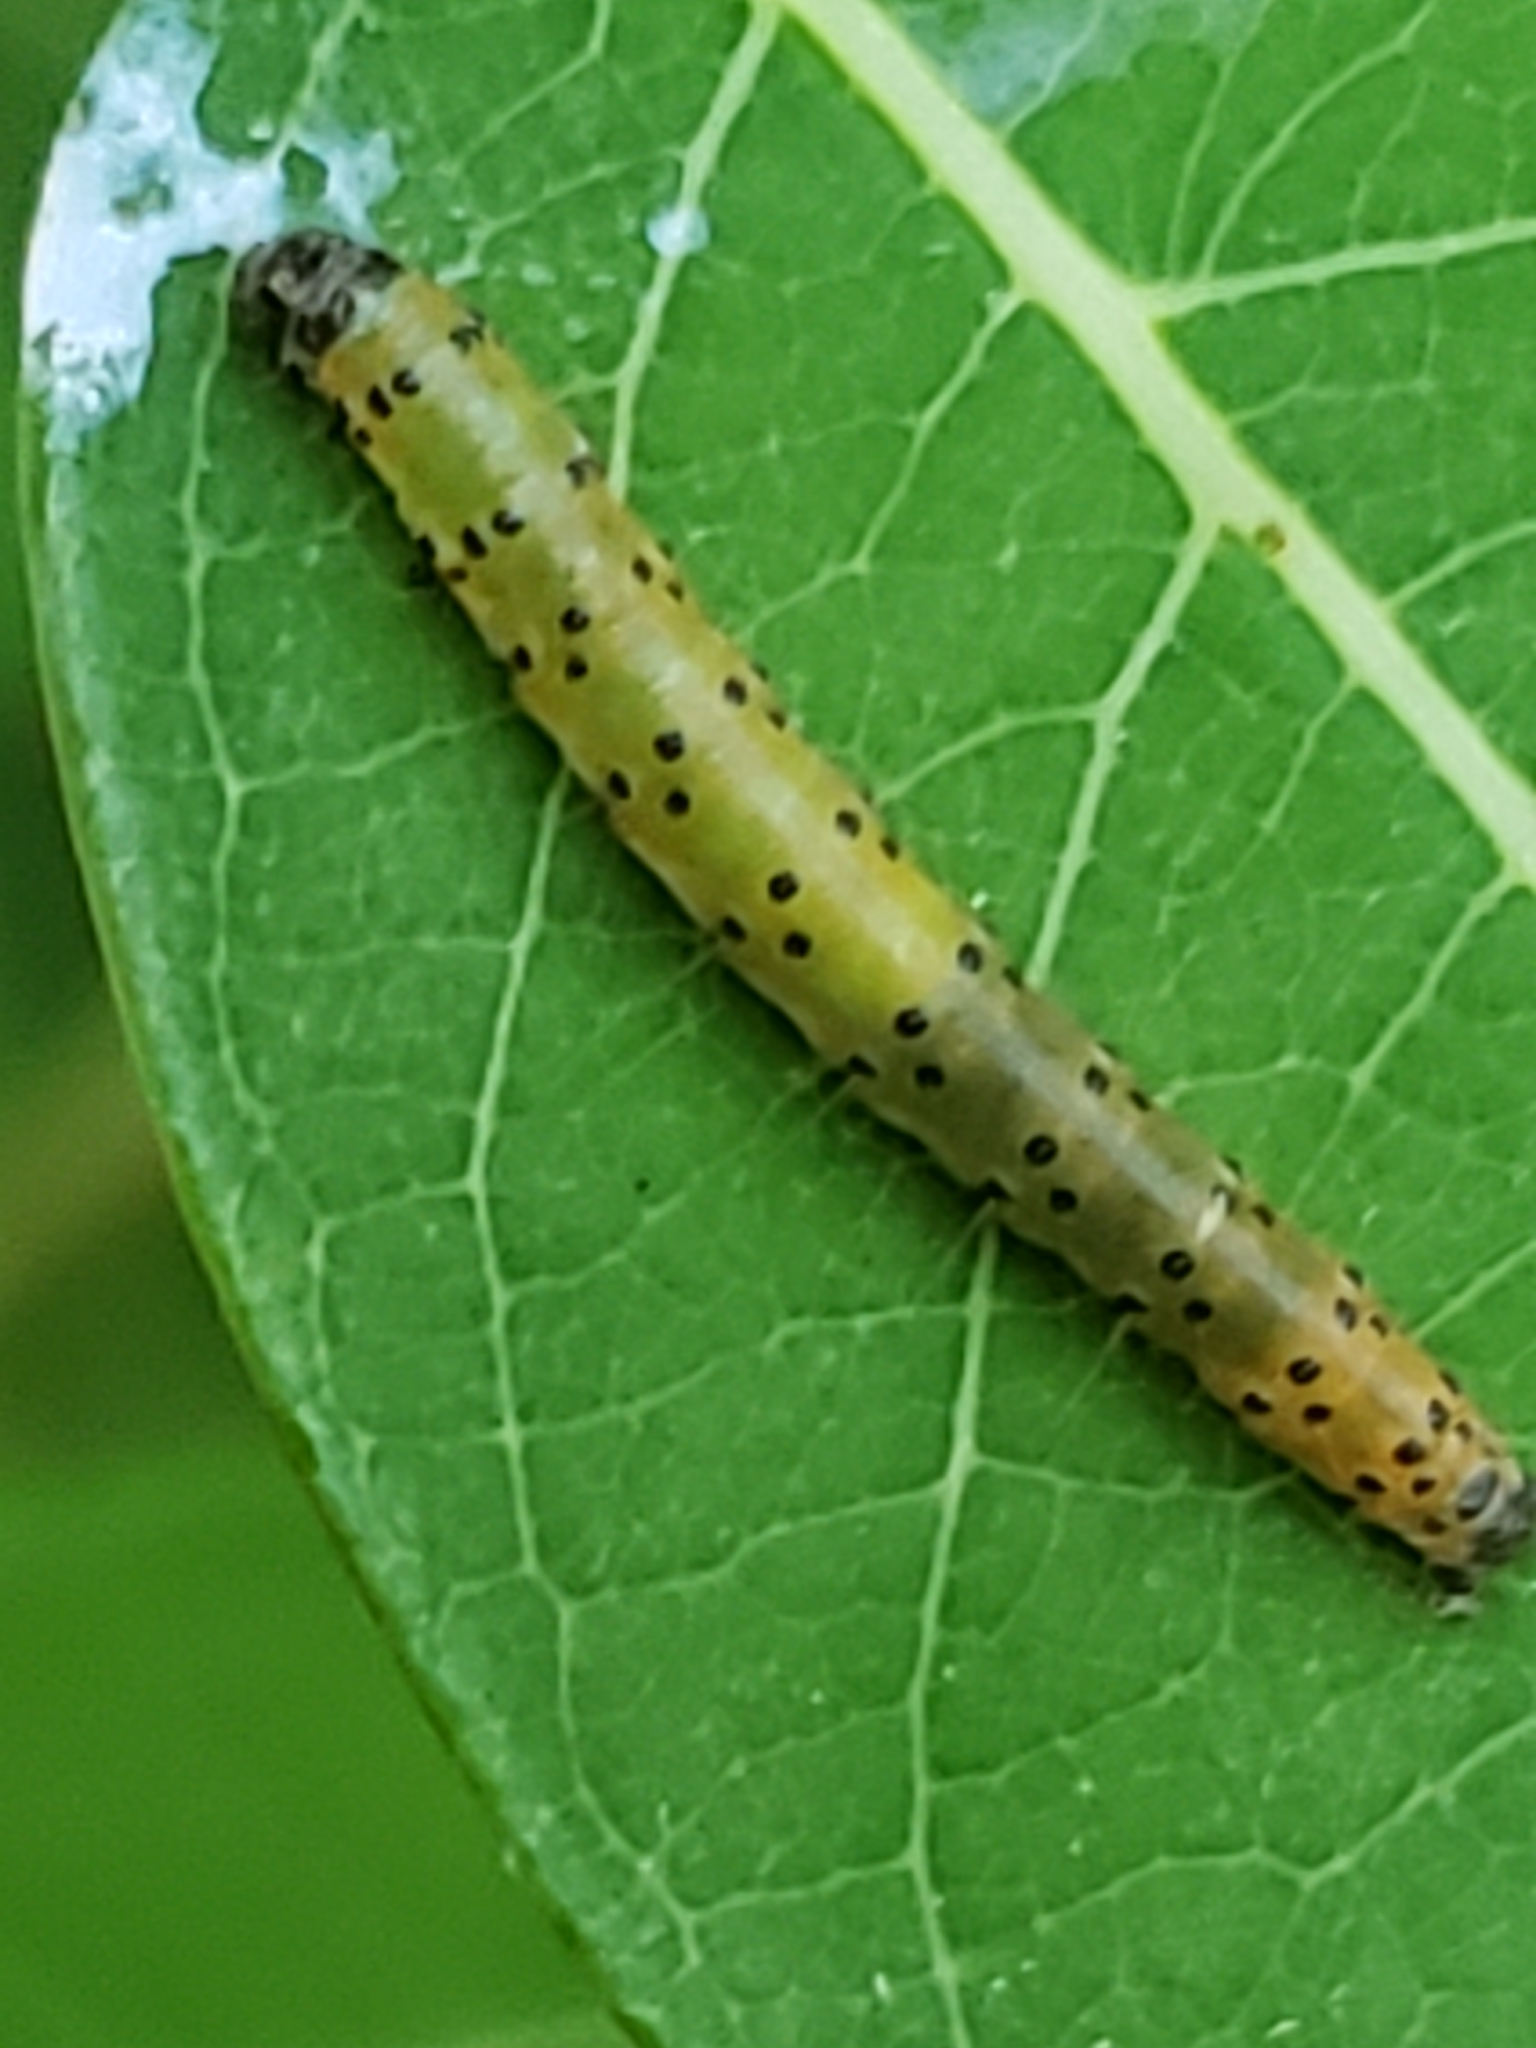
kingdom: Animalia
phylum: Arthropoda
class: Insecta
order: Lepidoptera
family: Crambidae
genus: Saucrobotys
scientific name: Saucrobotys futilalis
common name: Dogbane saucrobotys moth
